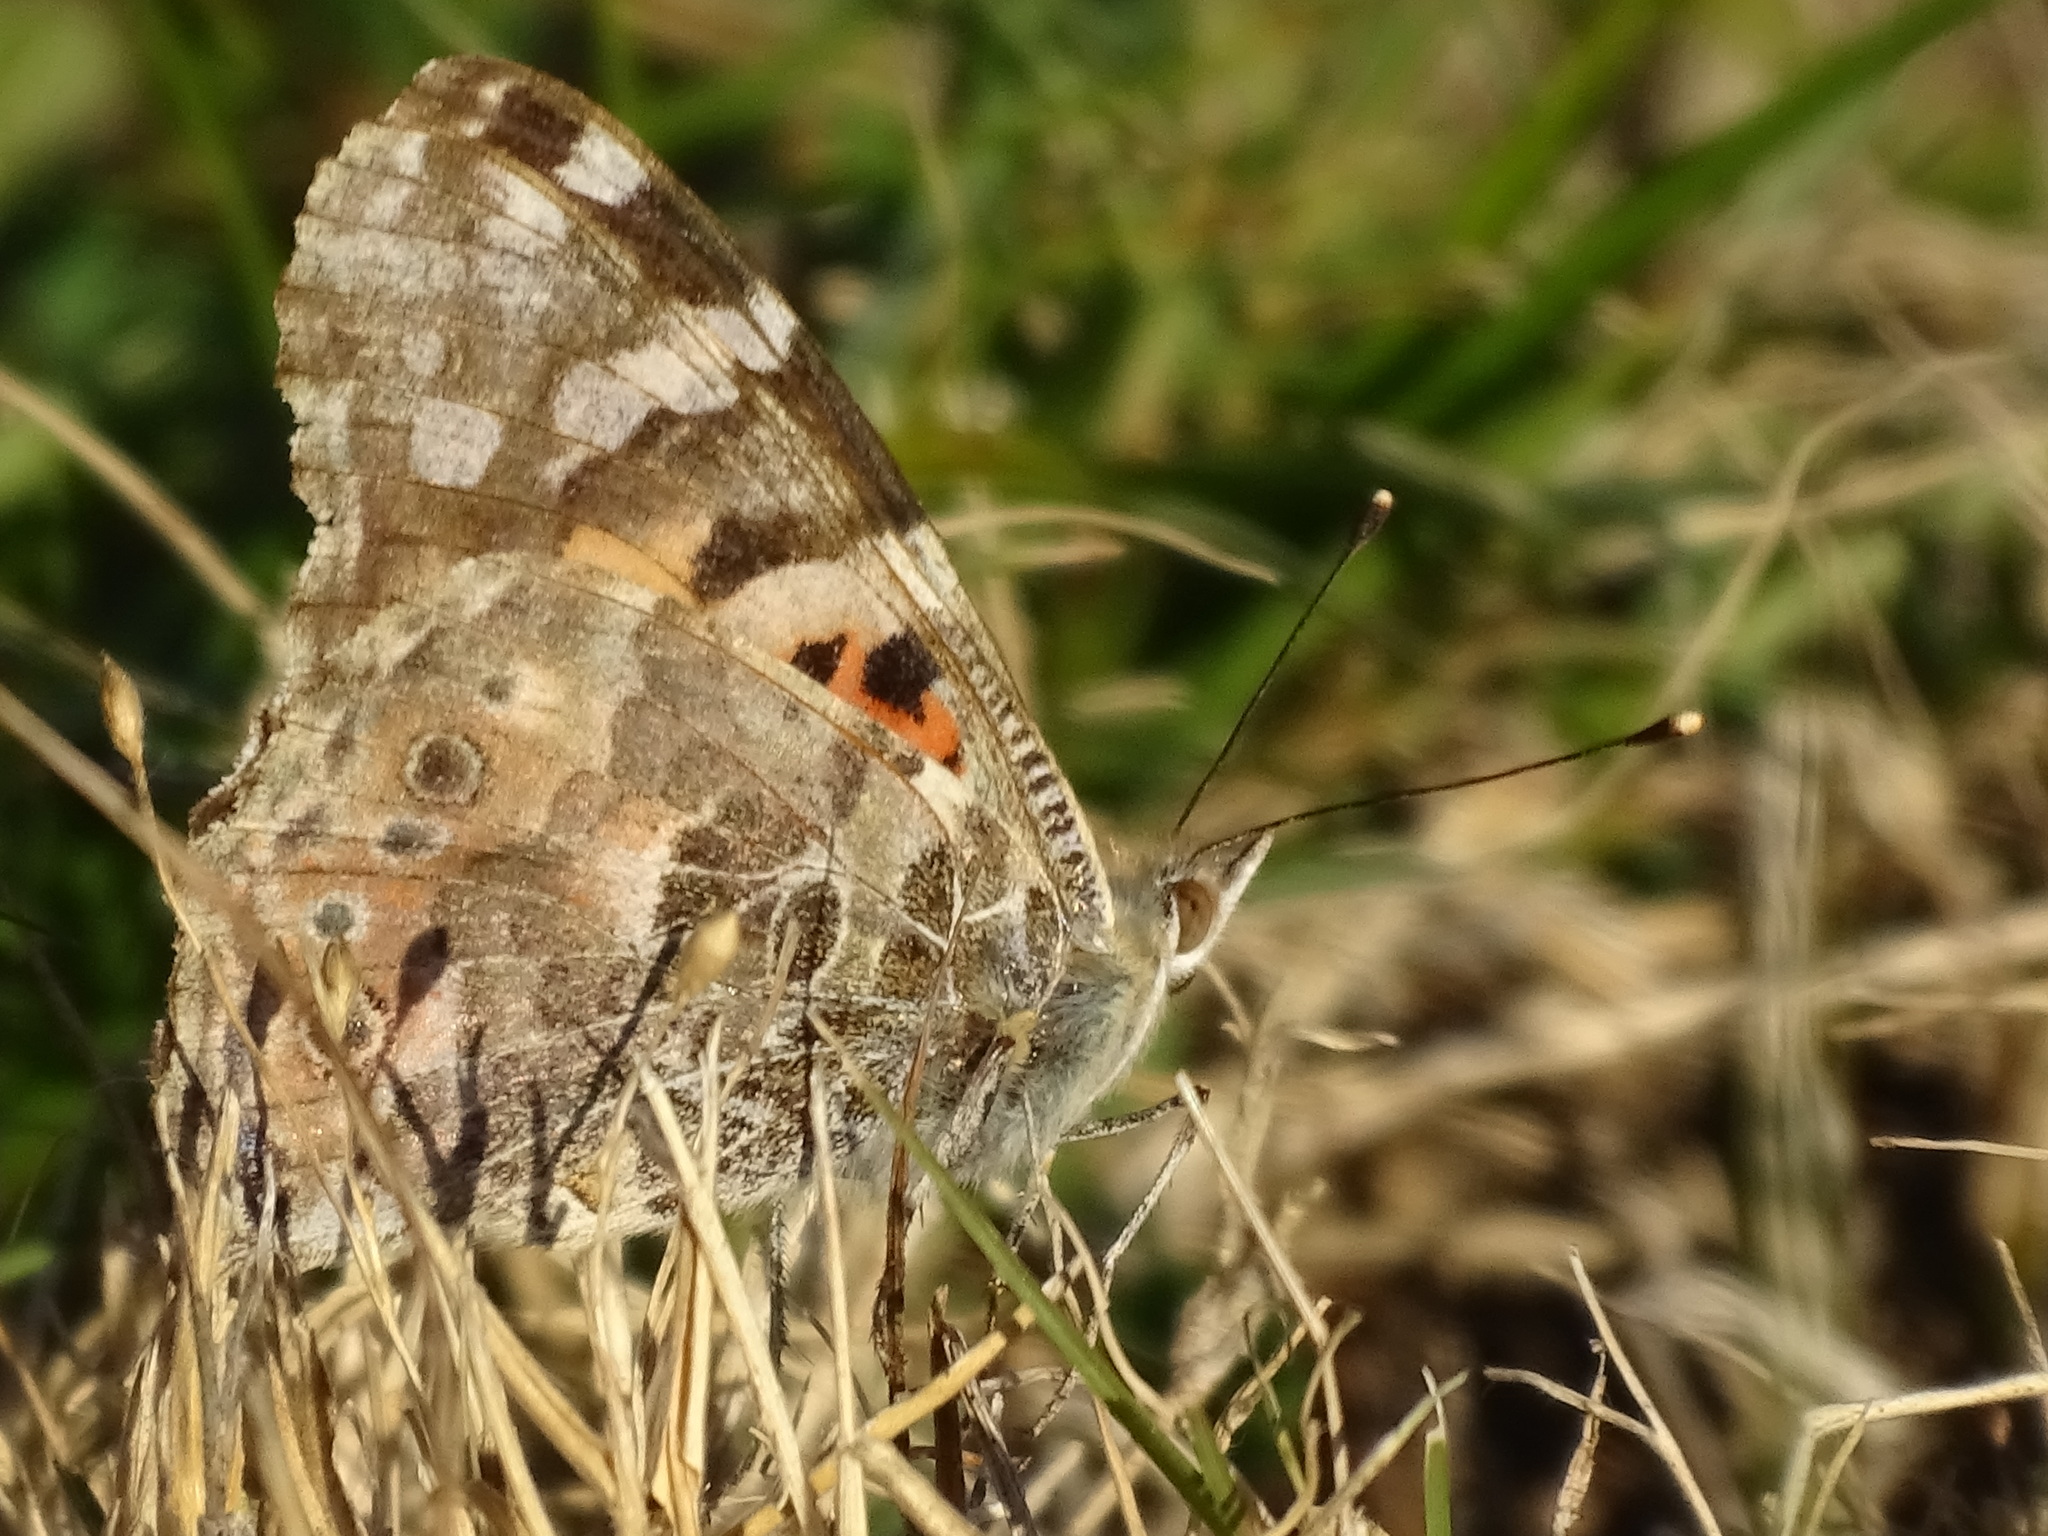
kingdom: Animalia
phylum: Arthropoda
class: Insecta
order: Lepidoptera
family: Nymphalidae
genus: Vanessa
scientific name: Vanessa cardui
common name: Painted lady
